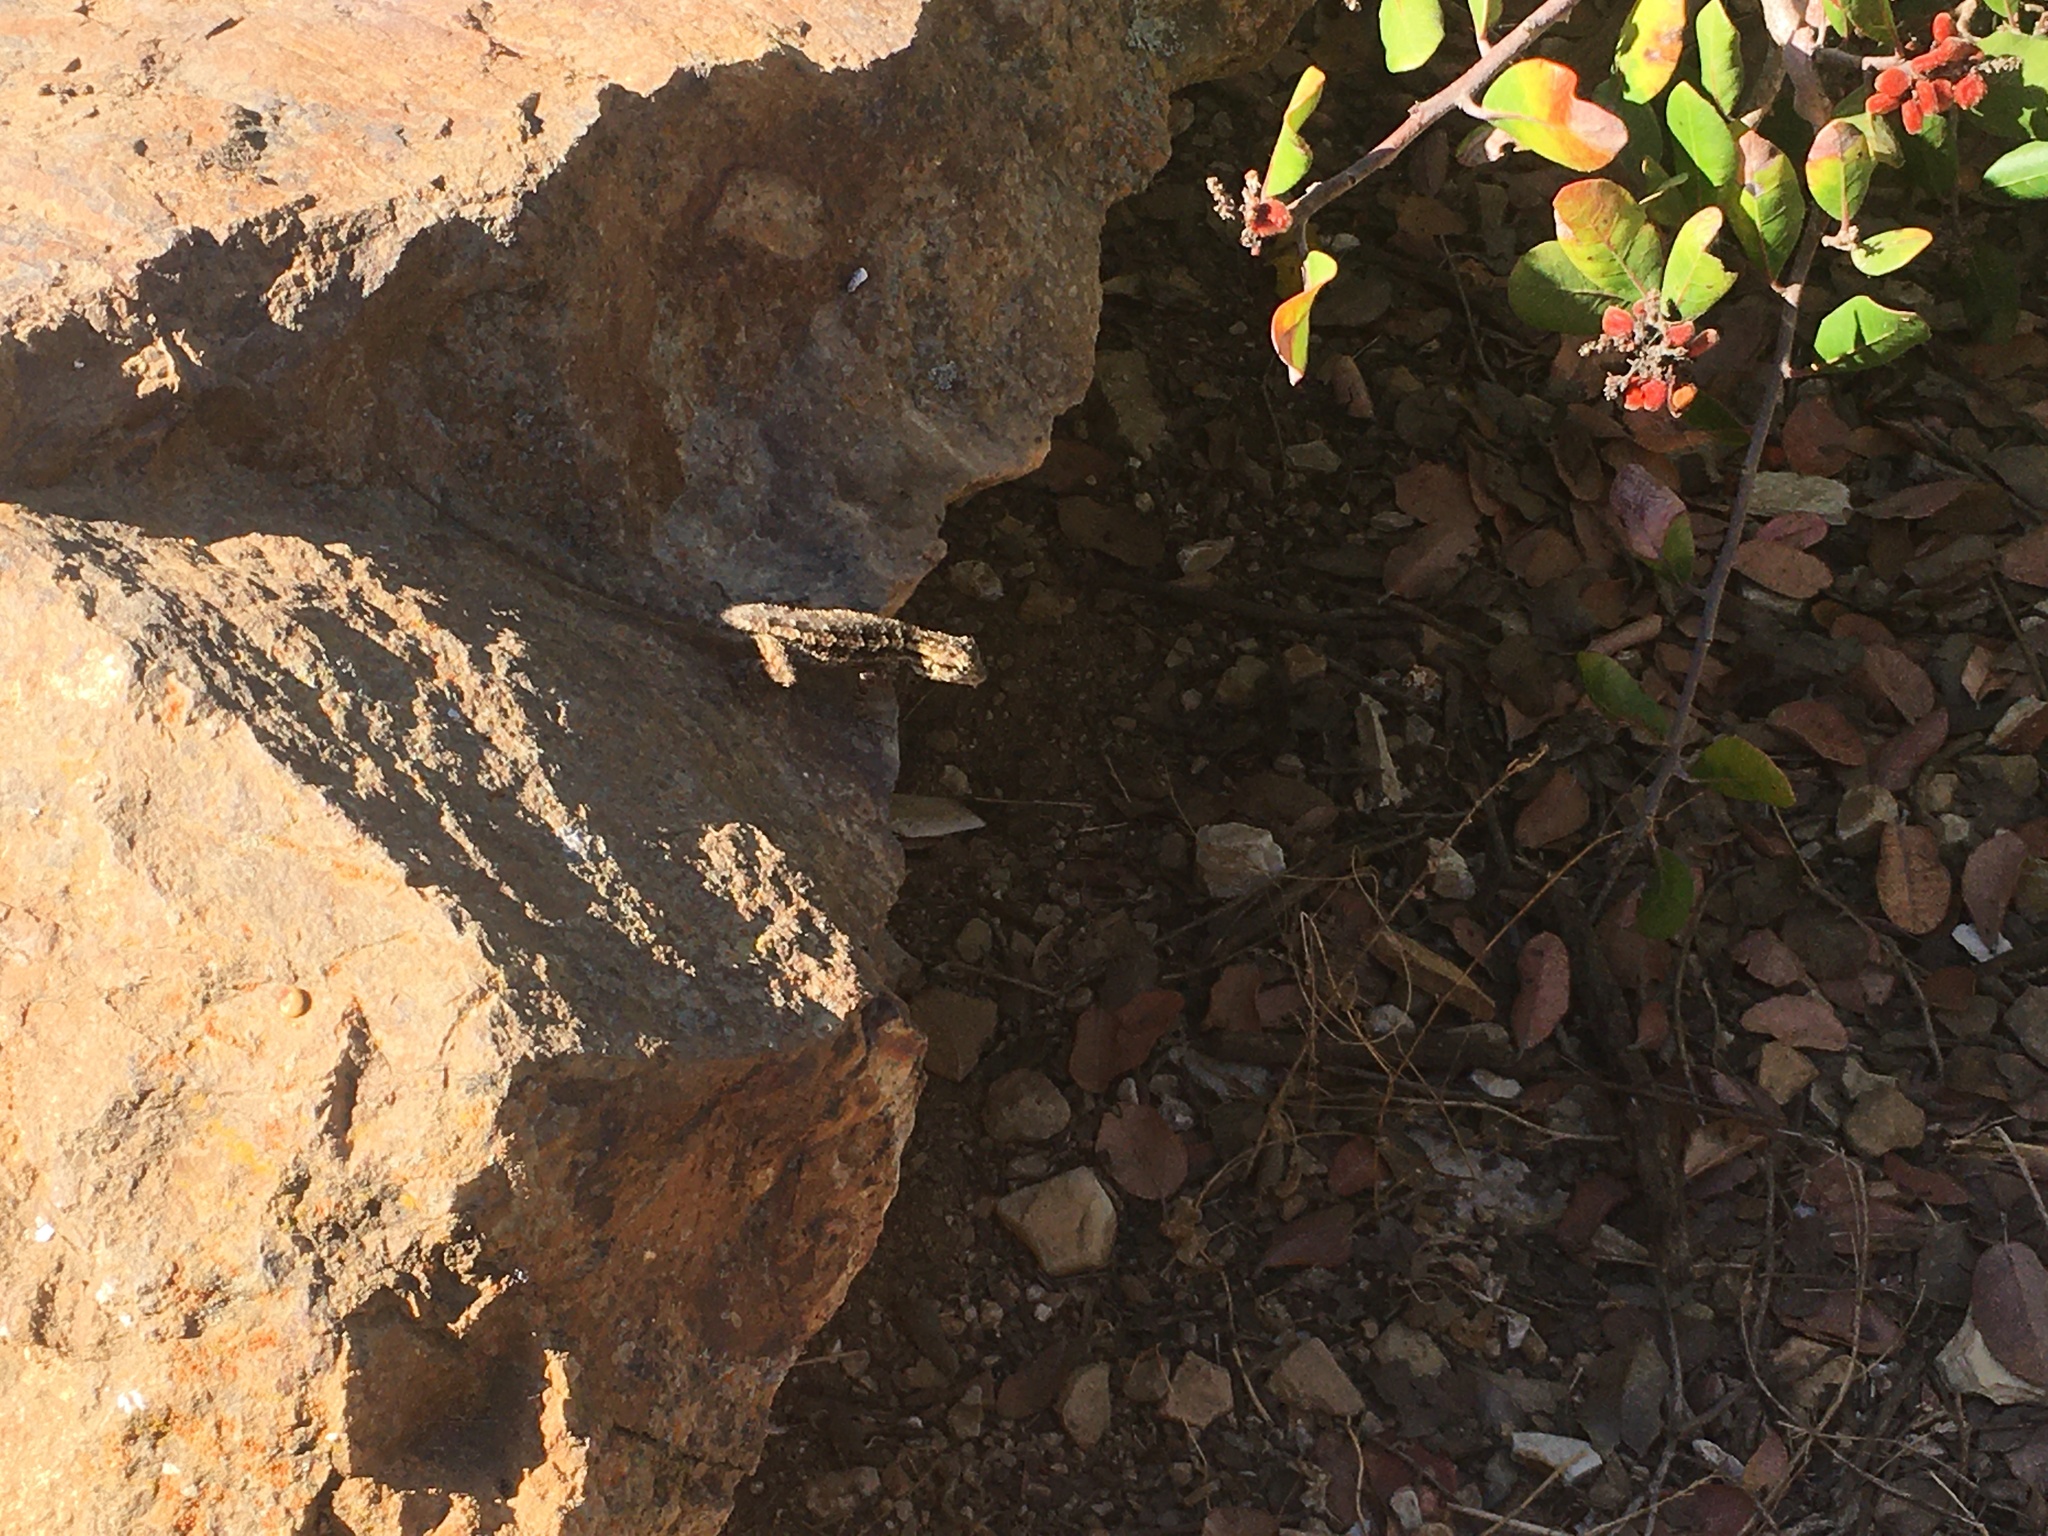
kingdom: Animalia
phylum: Chordata
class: Squamata
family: Phrynosomatidae
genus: Sceloporus
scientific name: Sceloporus occidentalis
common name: Western fence lizard
